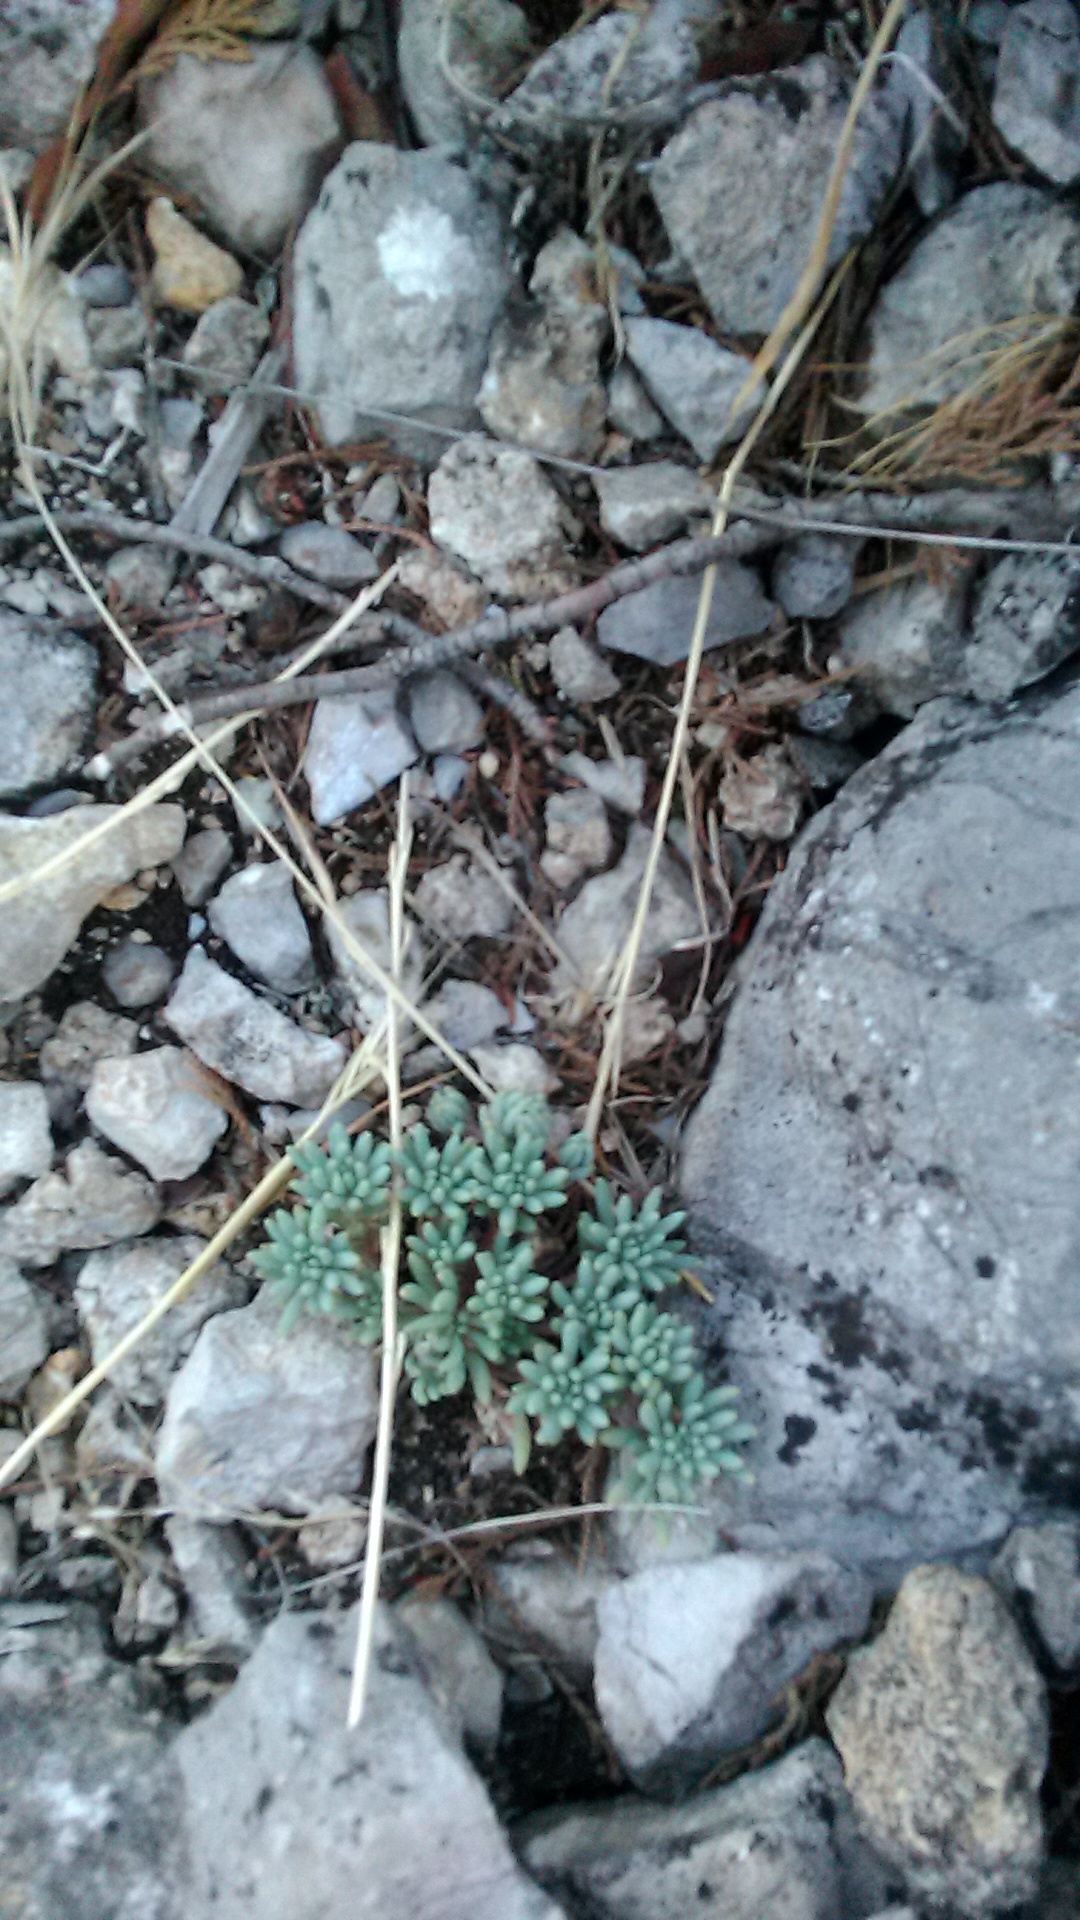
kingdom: Plantae
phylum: Tracheophyta
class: Magnoliopsida
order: Saxifragales
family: Crassulaceae
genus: Sedum
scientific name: Sedum hispanicum
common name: Spanish stonecrop
